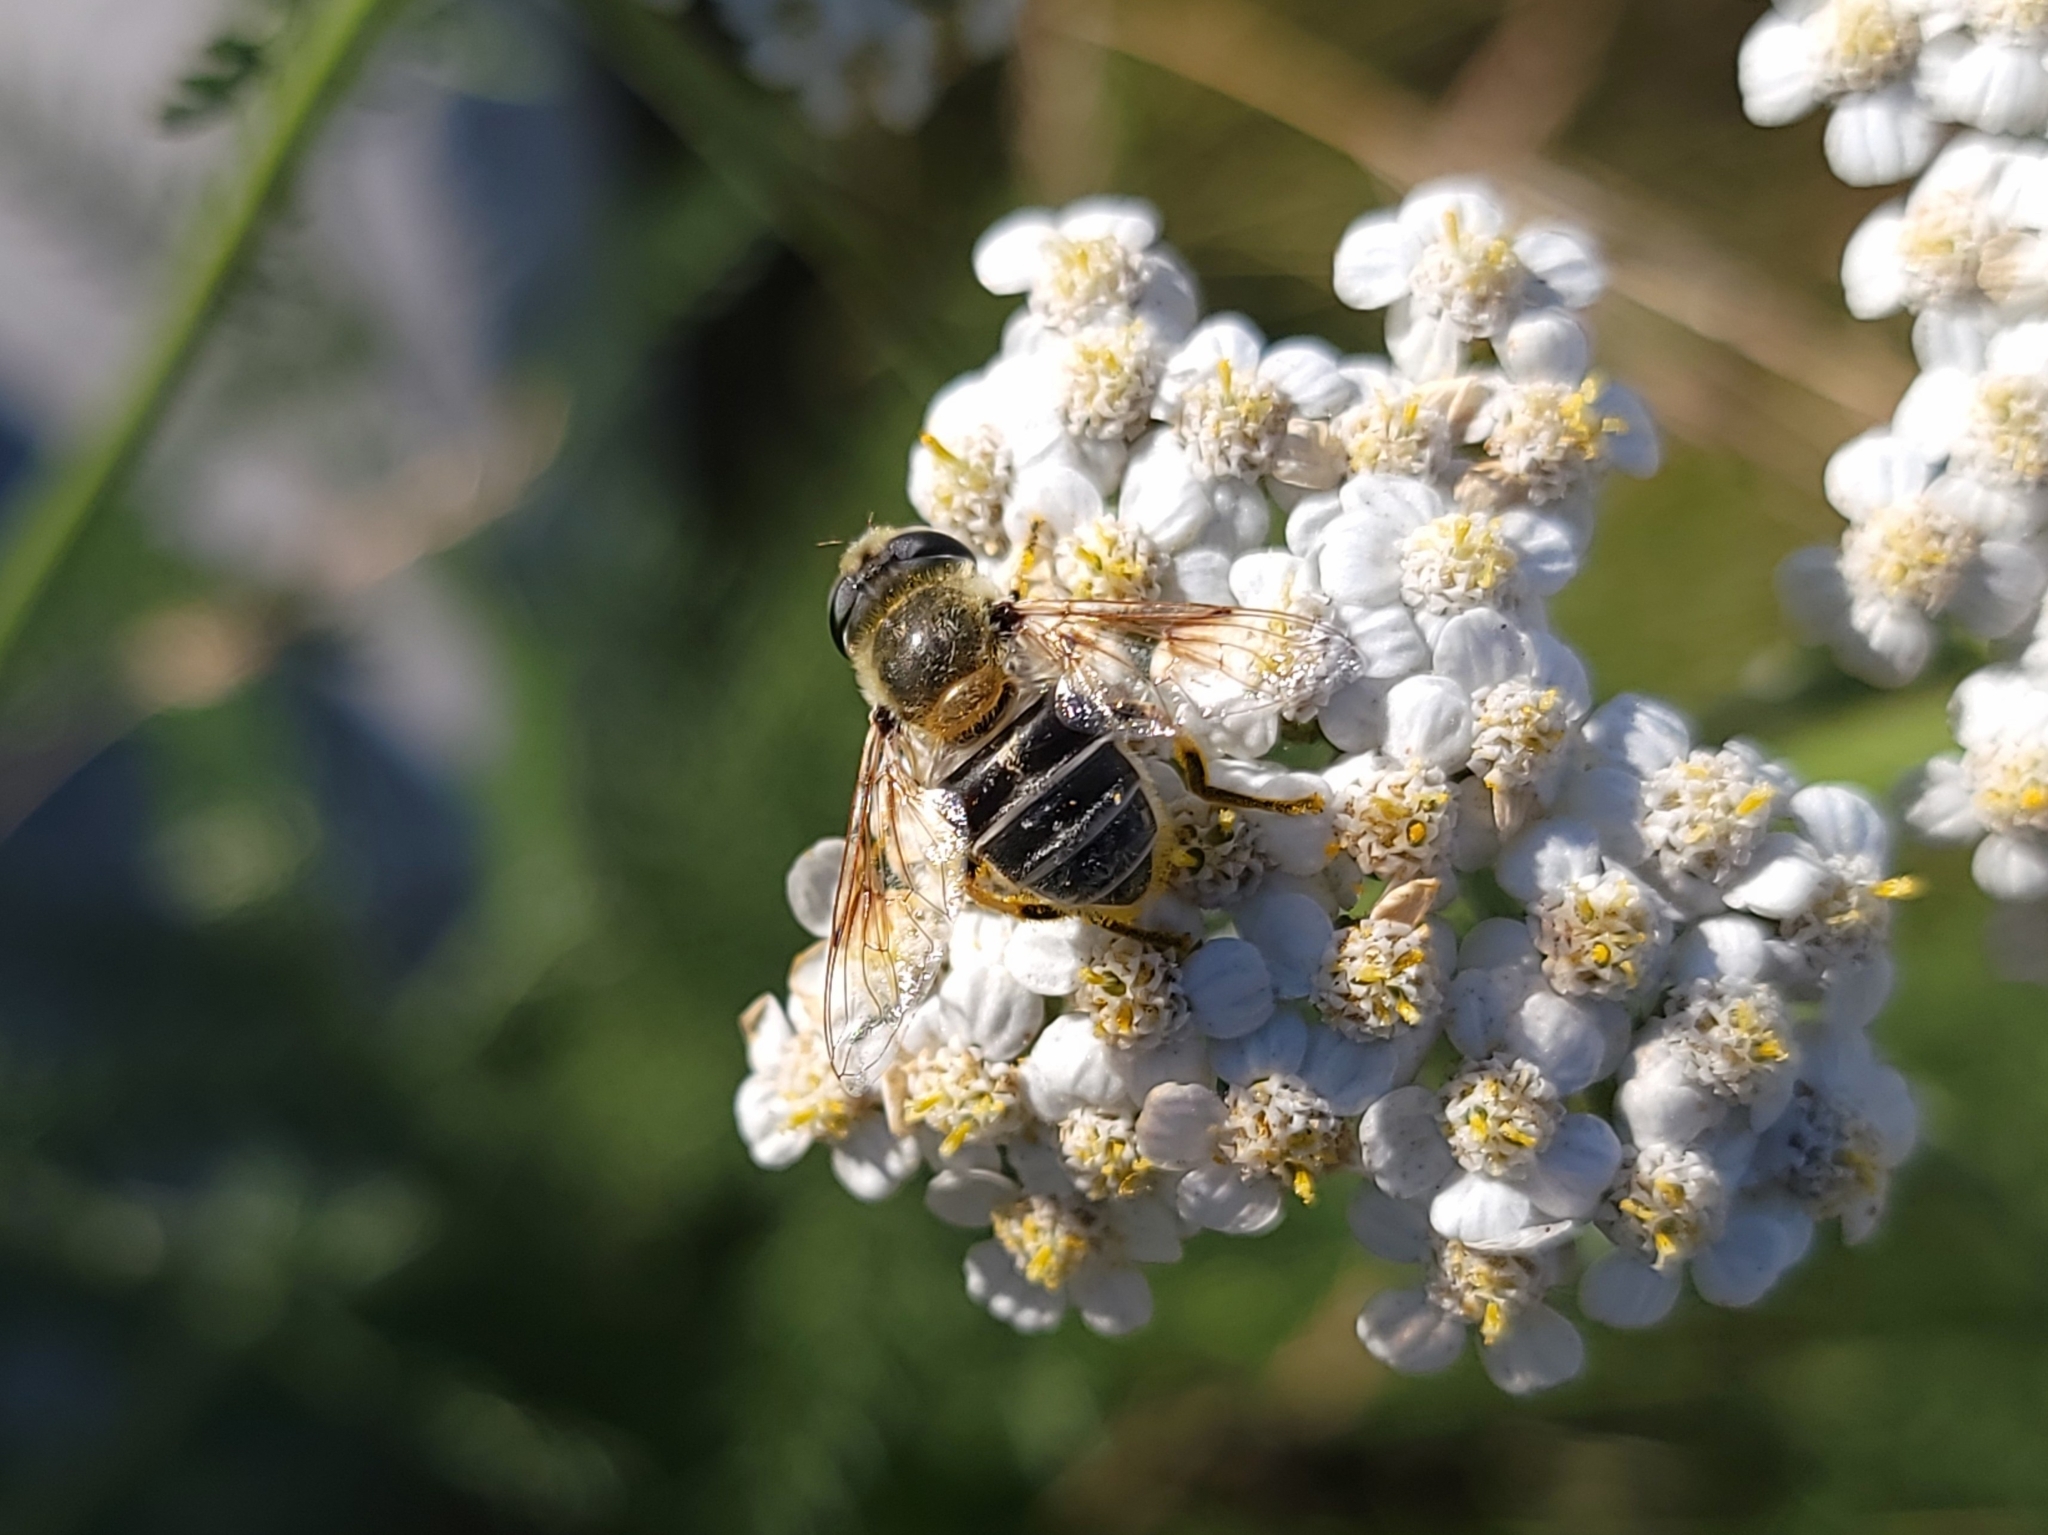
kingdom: Animalia
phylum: Arthropoda
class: Insecta
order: Diptera
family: Syrphidae
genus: Eristalis
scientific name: Eristalis stipator
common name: Yellow-shouldered drone fly
